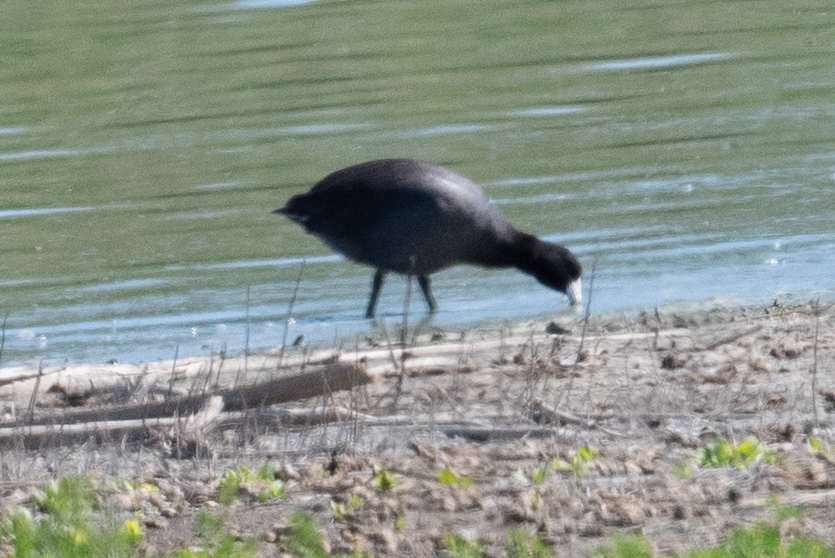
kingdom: Animalia
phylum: Chordata
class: Aves
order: Gruiformes
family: Rallidae
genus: Fulica
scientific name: Fulica americana
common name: American coot
